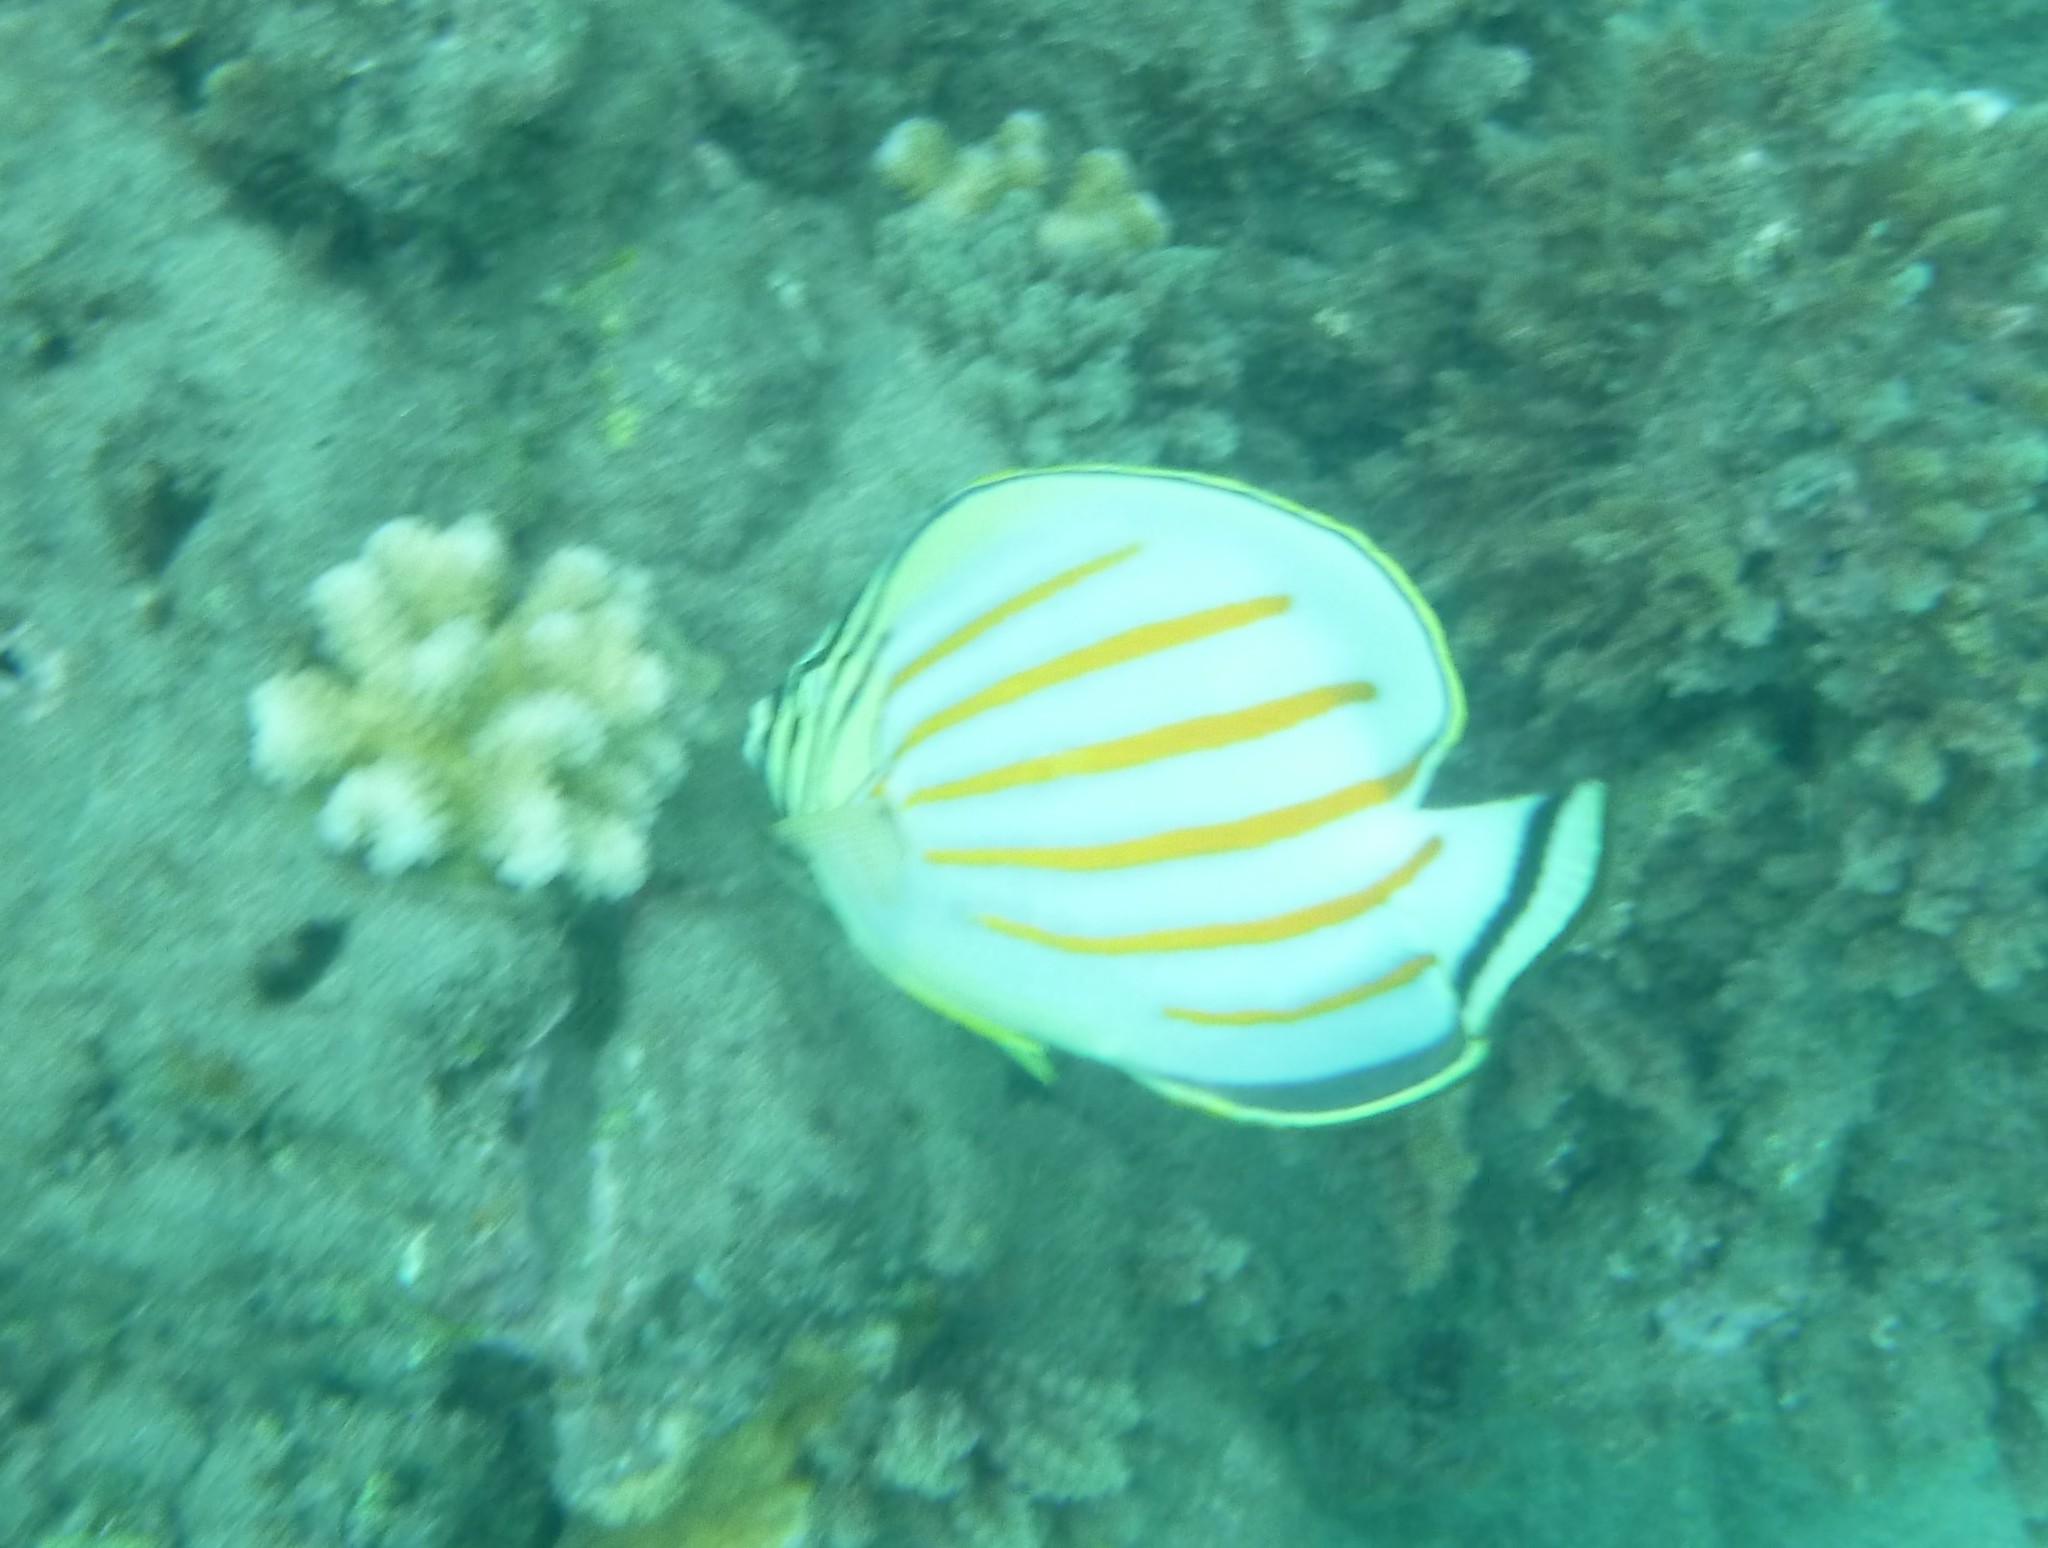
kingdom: Animalia
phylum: Chordata
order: Perciformes
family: Chaetodontidae
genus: Chaetodon
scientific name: Chaetodon ornatissimus
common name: Ornate butterflyfish
